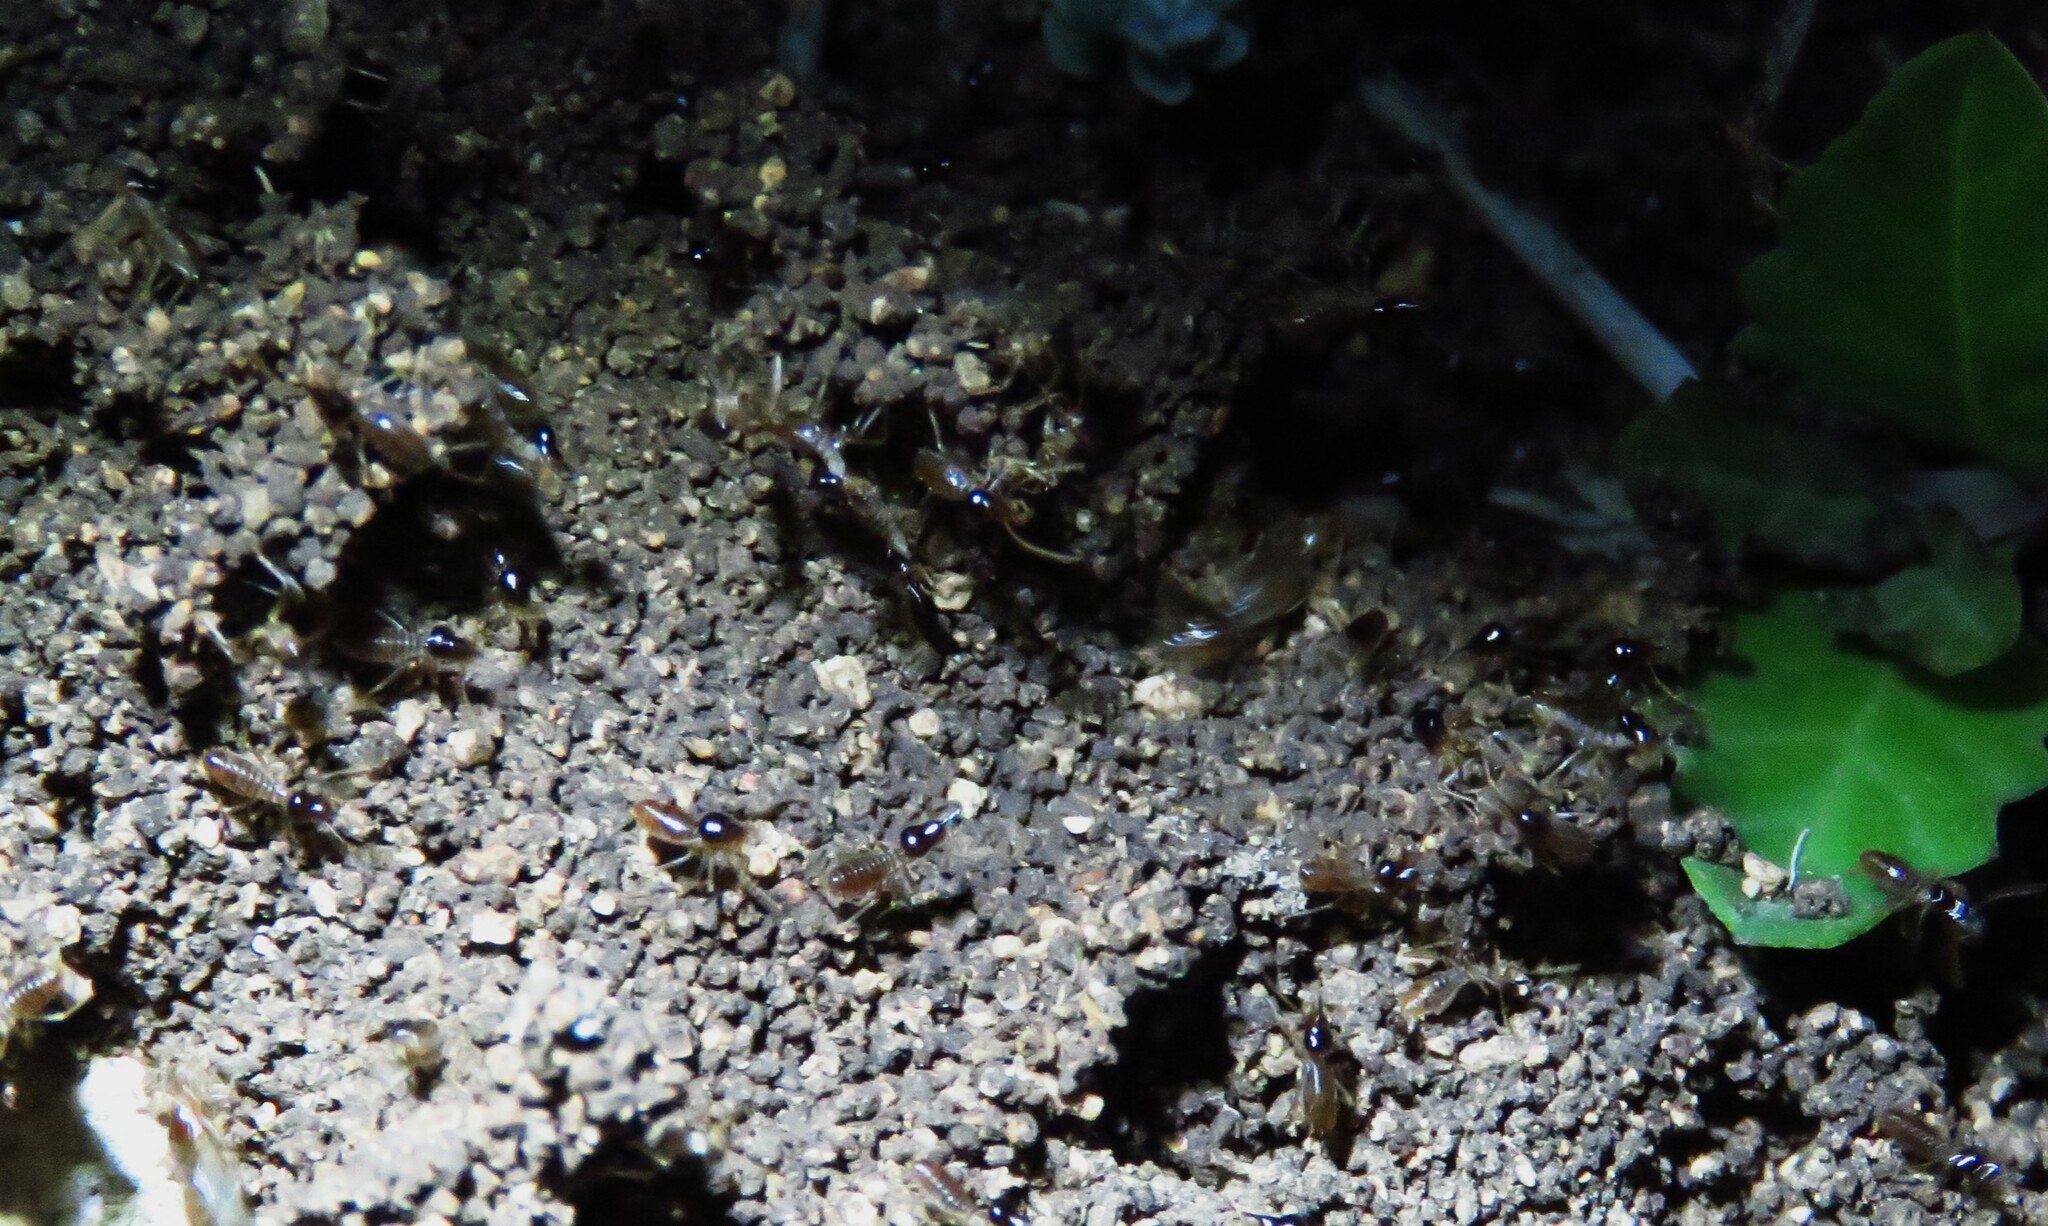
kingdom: Animalia
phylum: Arthropoda
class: Insecta
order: Blattodea
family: Termitidae
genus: Tenuirostritermes
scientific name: Tenuirostritermes cinereus
